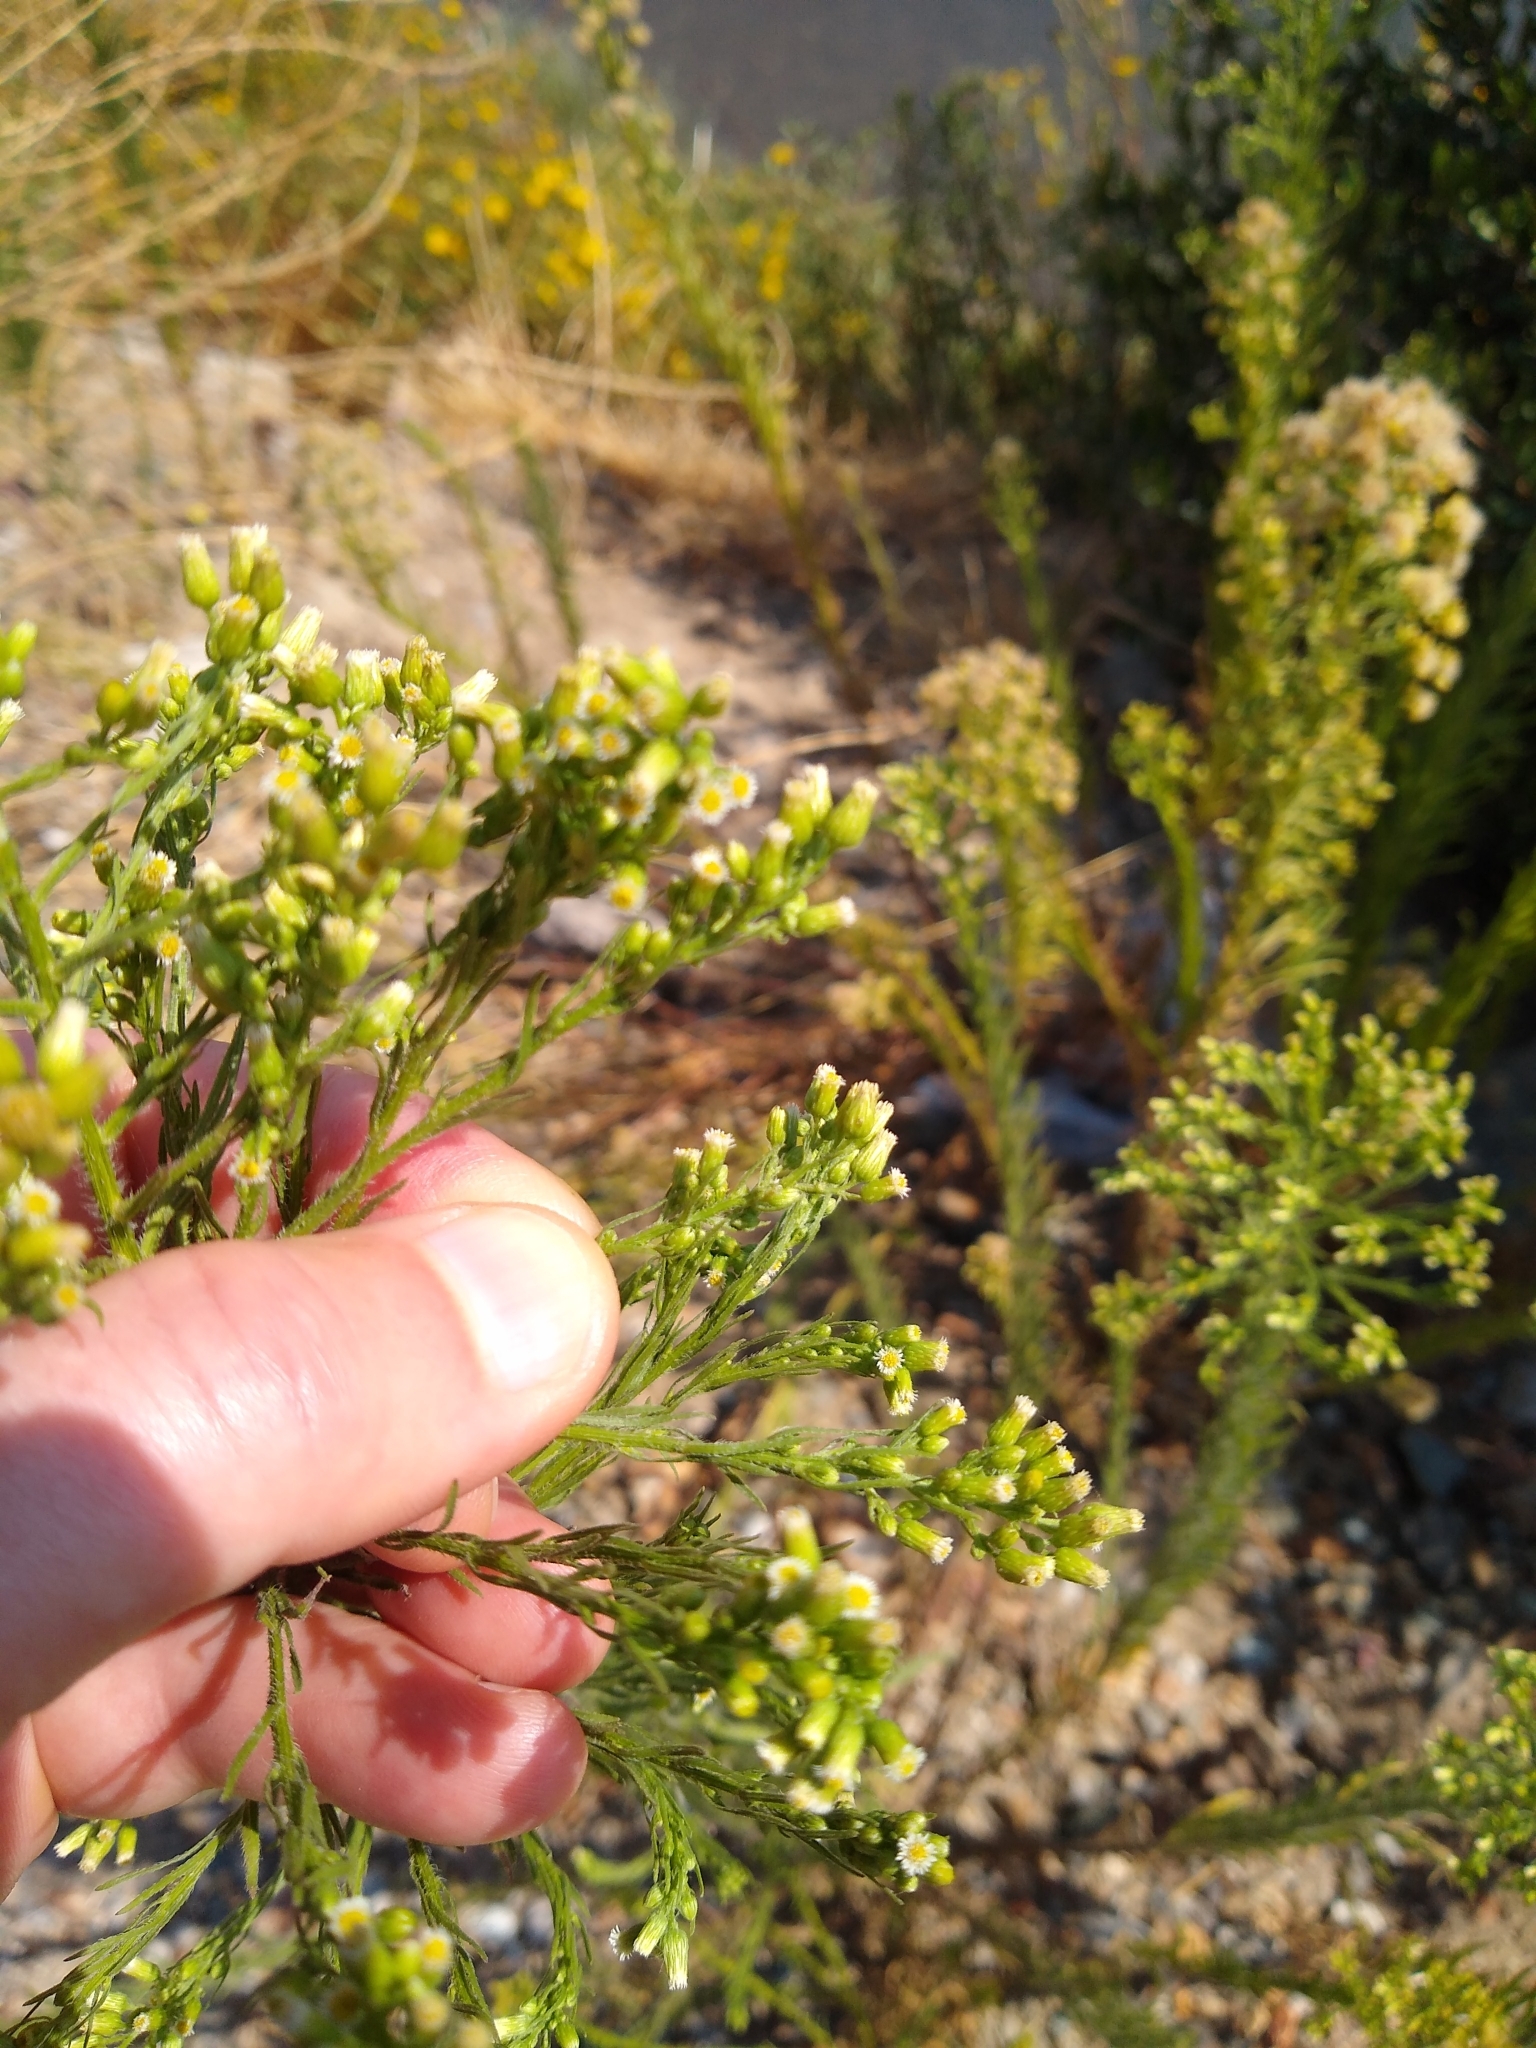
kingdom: Plantae
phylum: Tracheophyta
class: Magnoliopsida
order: Asterales
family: Asteraceae
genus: Erigeron
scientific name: Erigeron canadensis
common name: Canadian fleabane
